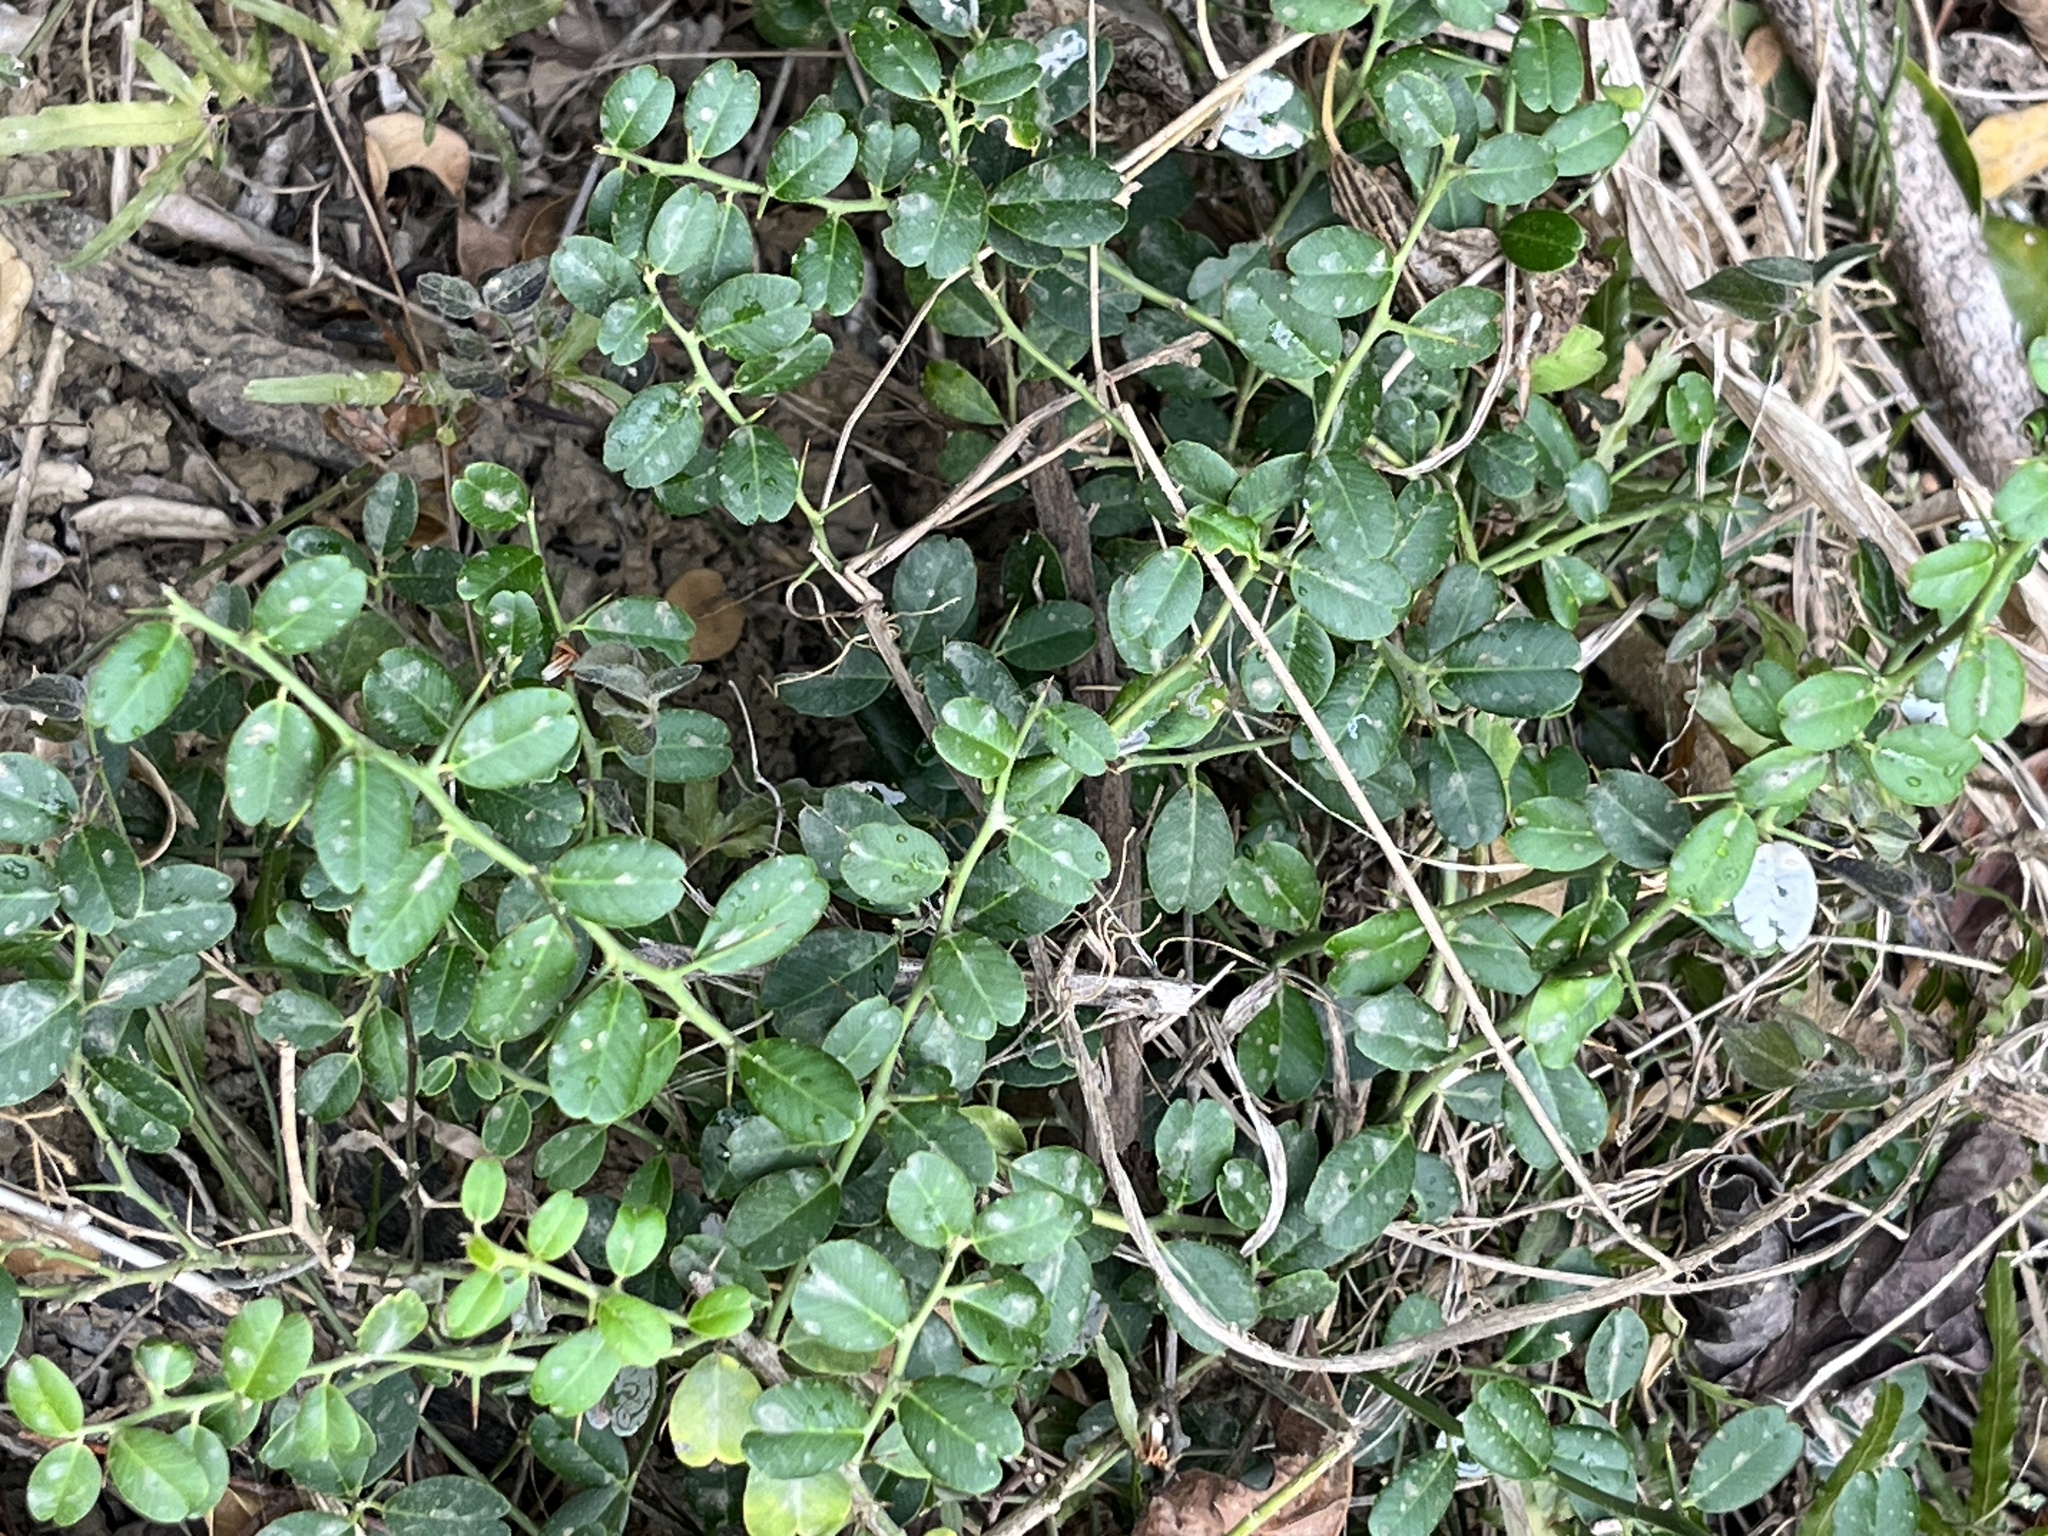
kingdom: Plantae
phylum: Tracheophyta
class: Magnoliopsida
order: Sapindales
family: Rutaceae
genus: Atalantia
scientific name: Atalantia buxifolia
